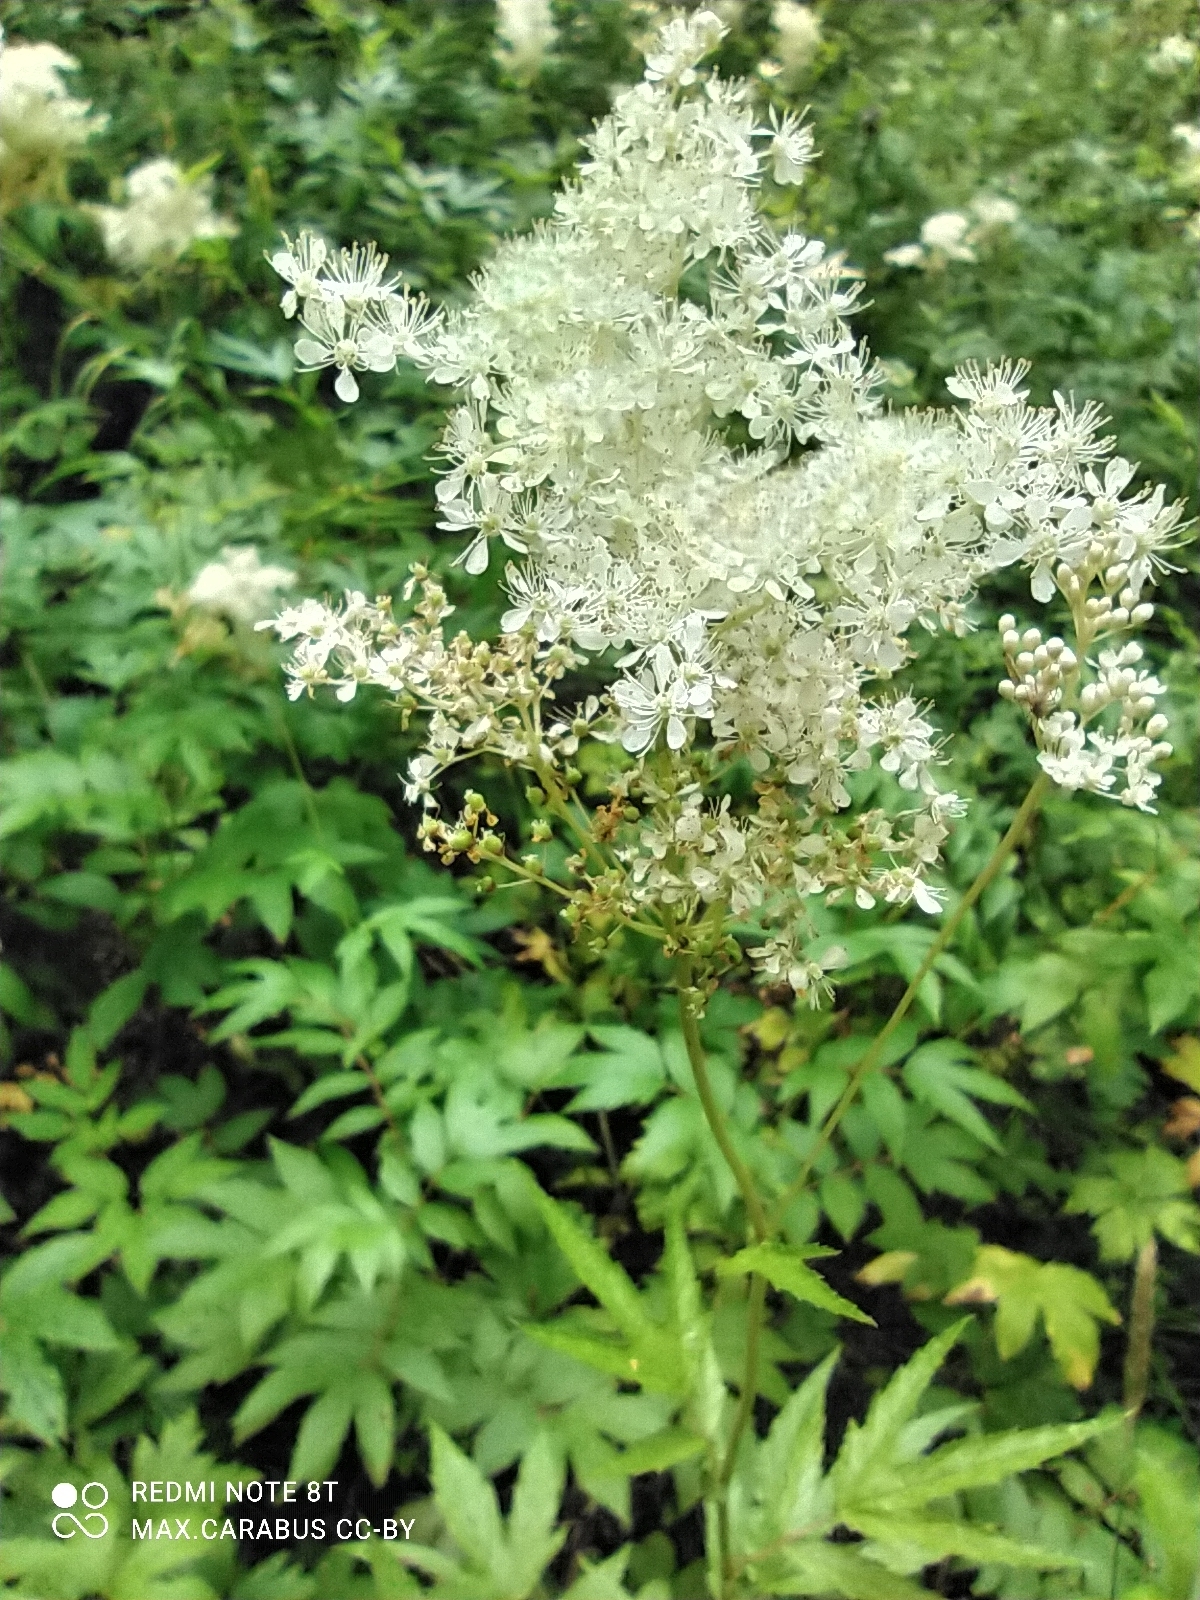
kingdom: Plantae
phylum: Tracheophyta
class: Magnoliopsida
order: Rosales
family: Rosaceae
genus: Filipendula
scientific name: Filipendula ulmaria
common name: Meadowsweet
